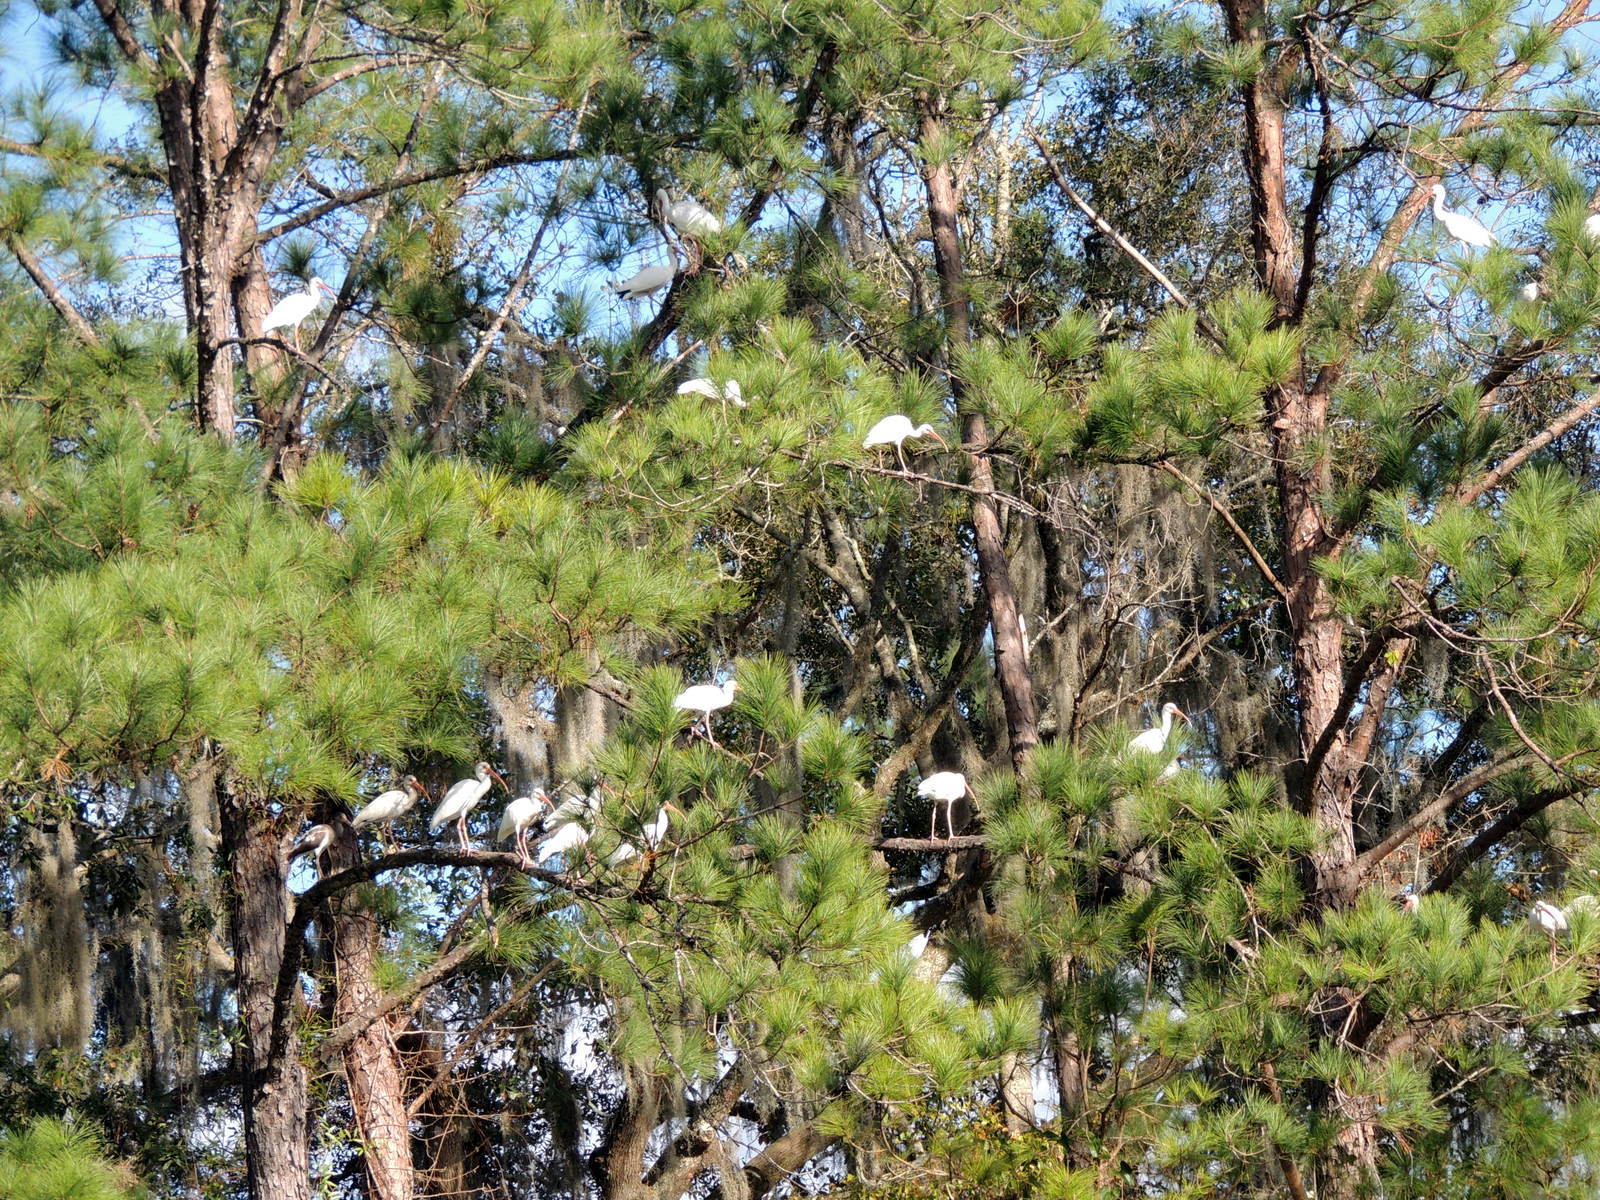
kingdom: Animalia
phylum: Chordata
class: Aves
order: Pelecaniformes
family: Threskiornithidae
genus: Eudocimus
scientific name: Eudocimus albus
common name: White ibis
